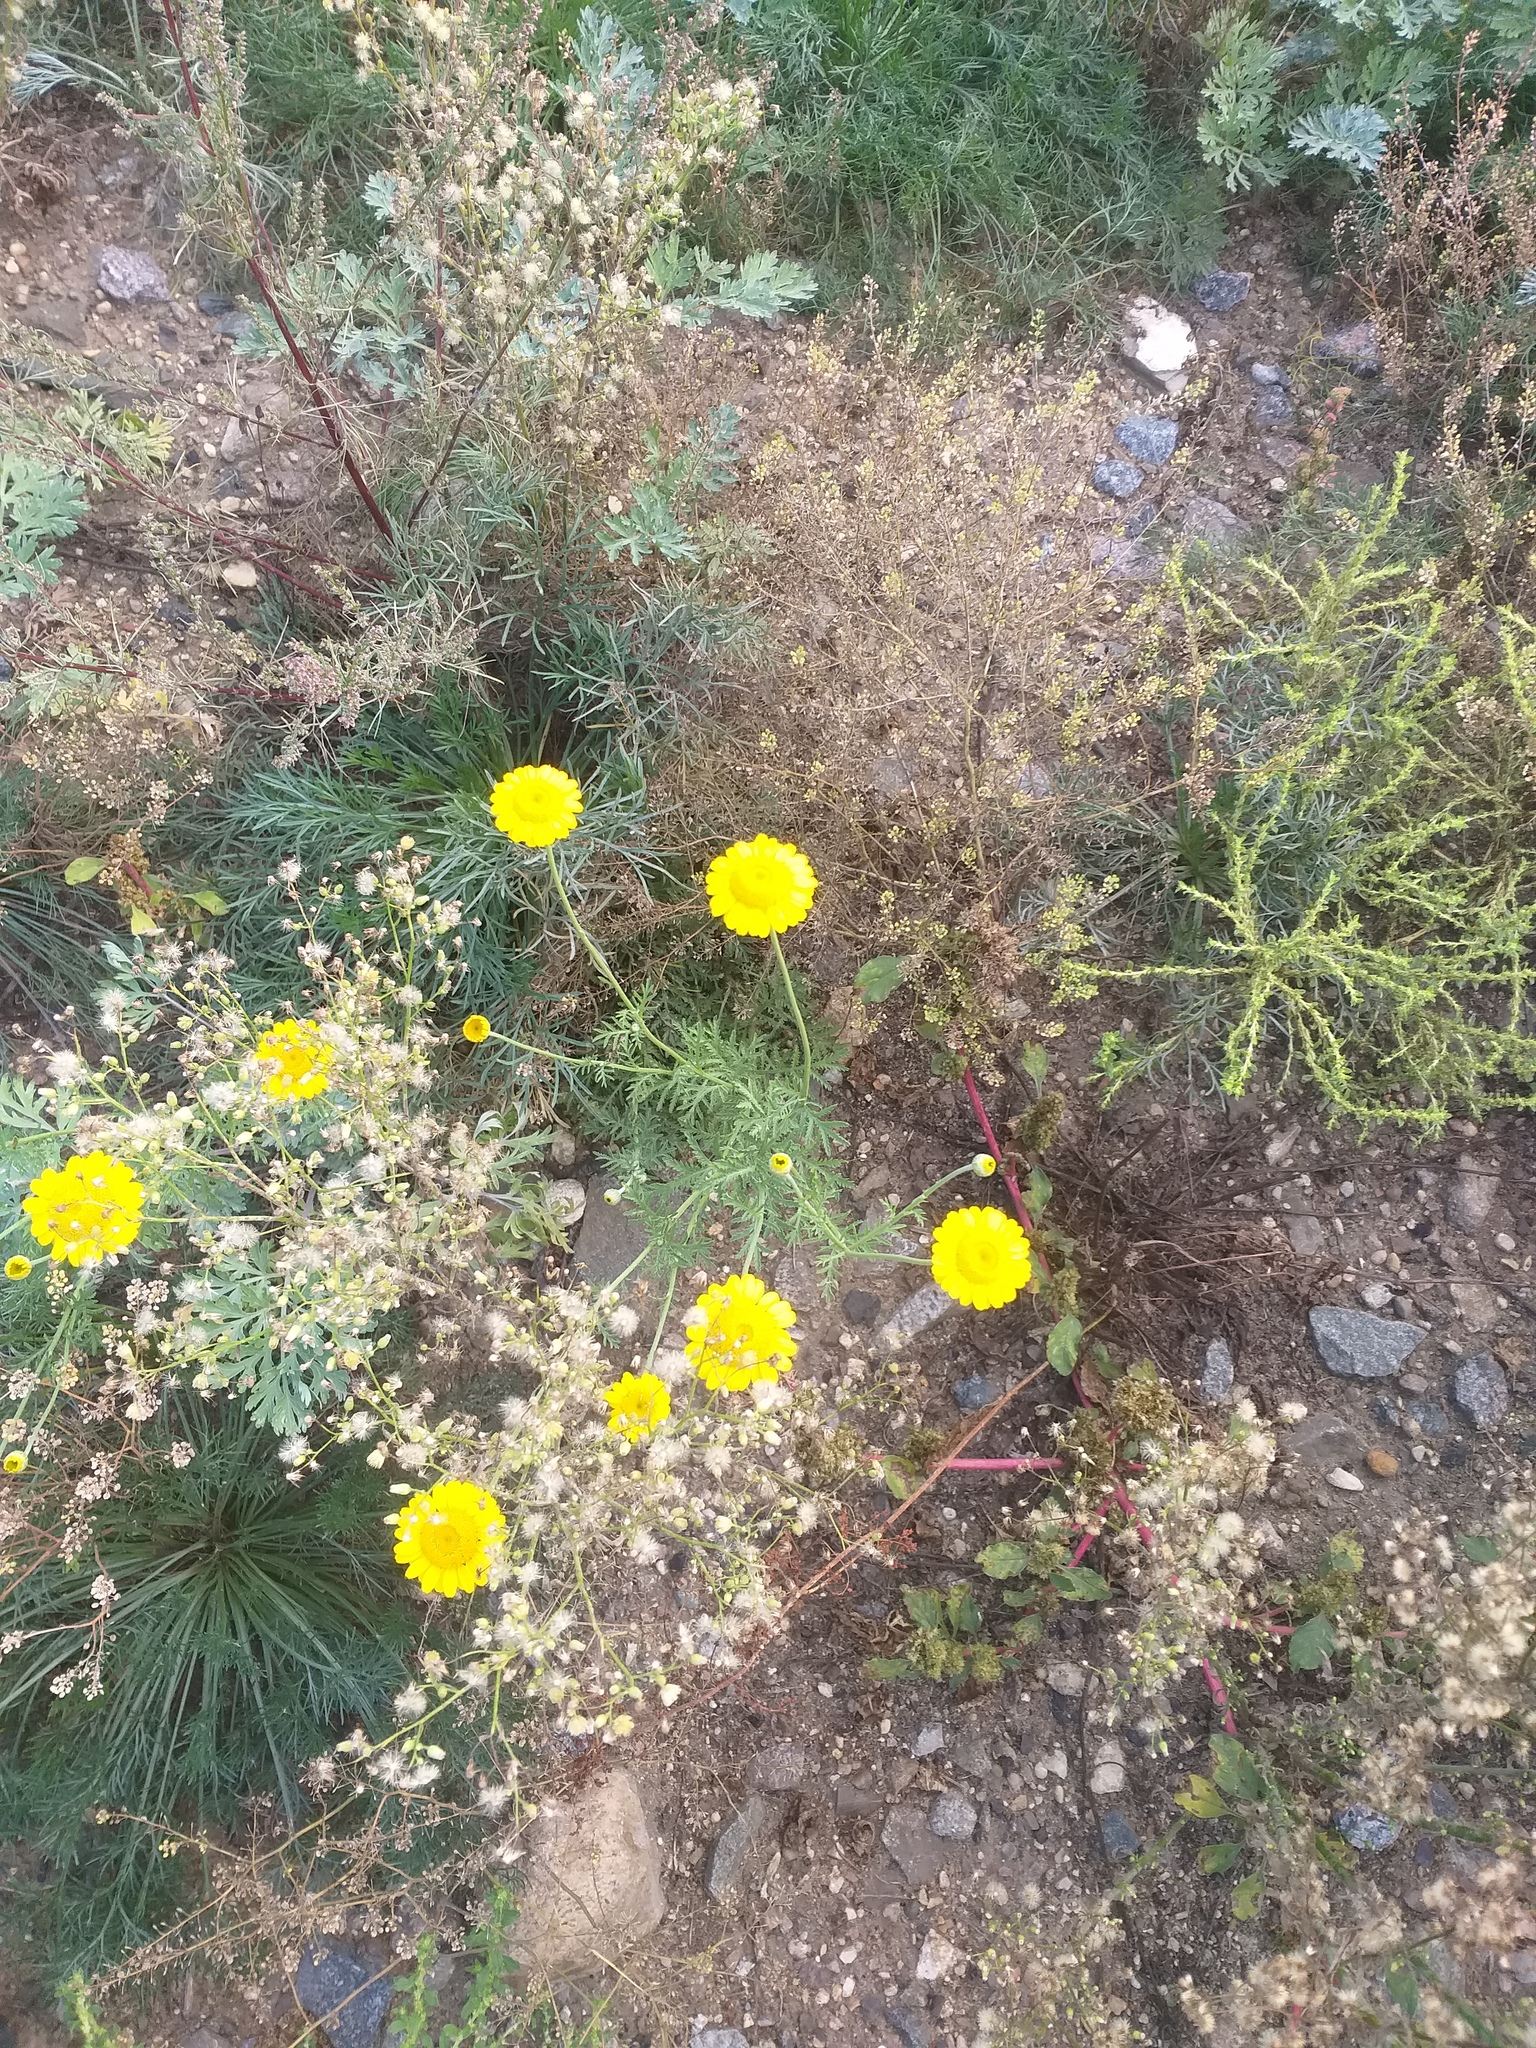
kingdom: Plantae
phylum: Tracheophyta
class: Magnoliopsida
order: Asterales
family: Asteraceae
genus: Cota
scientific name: Cota tinctoria
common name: Golden chamomile
